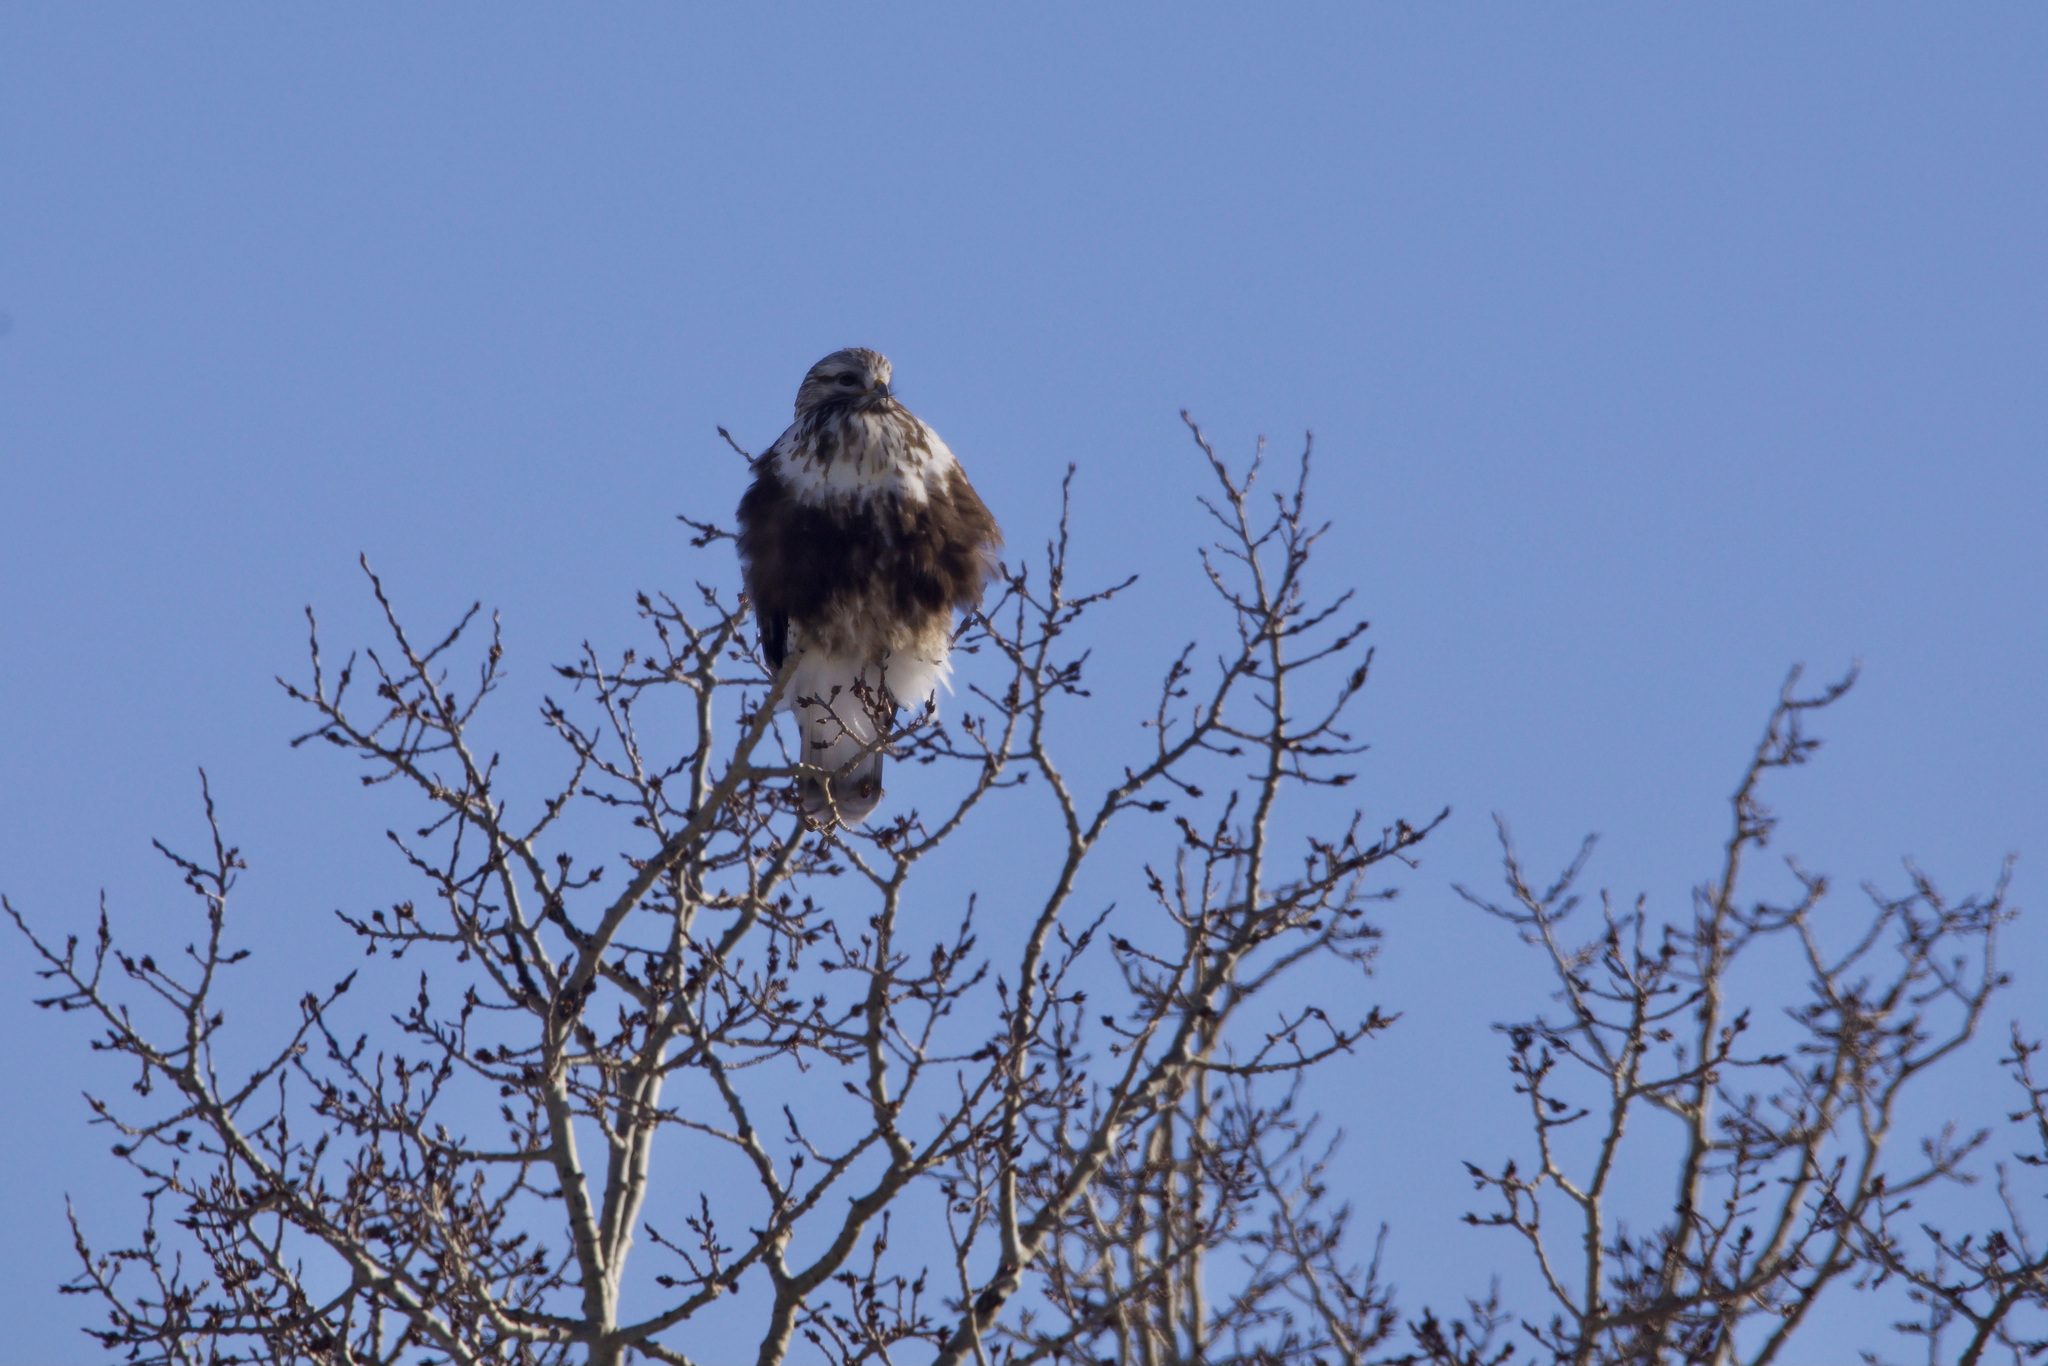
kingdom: Animalia
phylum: Chordata
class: Aves
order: Accipitriformes
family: Accipitridae
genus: Buteo
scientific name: Buteo lagopus
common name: Rough-legged buzzard
